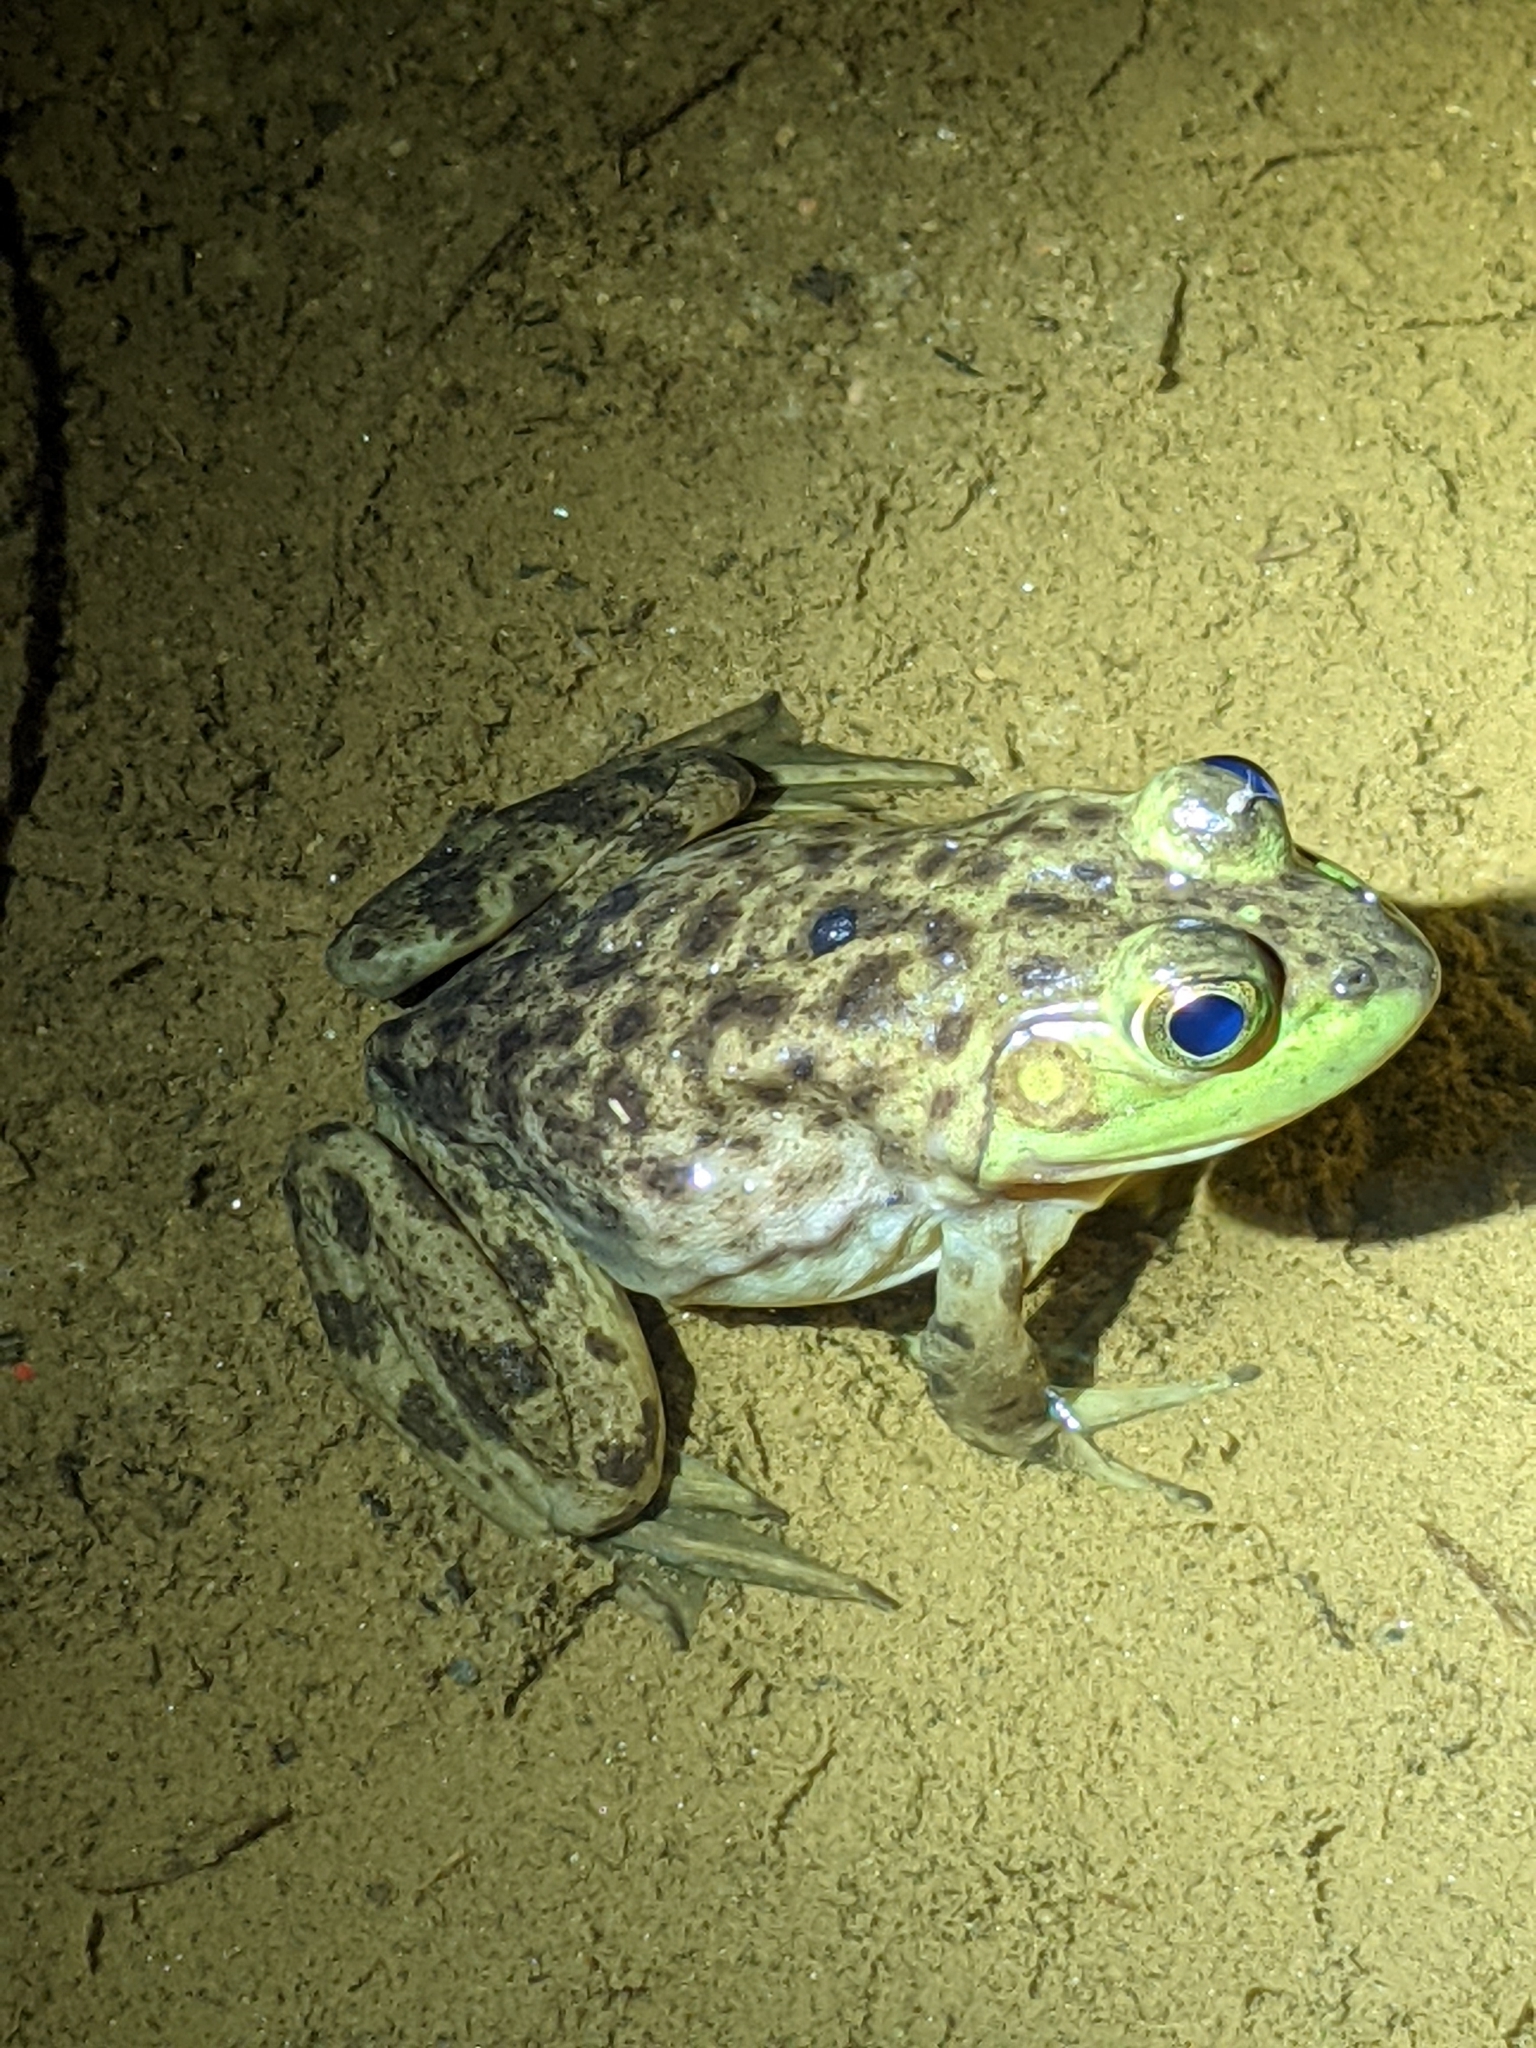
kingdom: Animalia
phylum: Chordata
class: Amphibia
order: Anura
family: Ranidae
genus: Lithobates
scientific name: Lithobates catesbeianus
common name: American bullfrog
